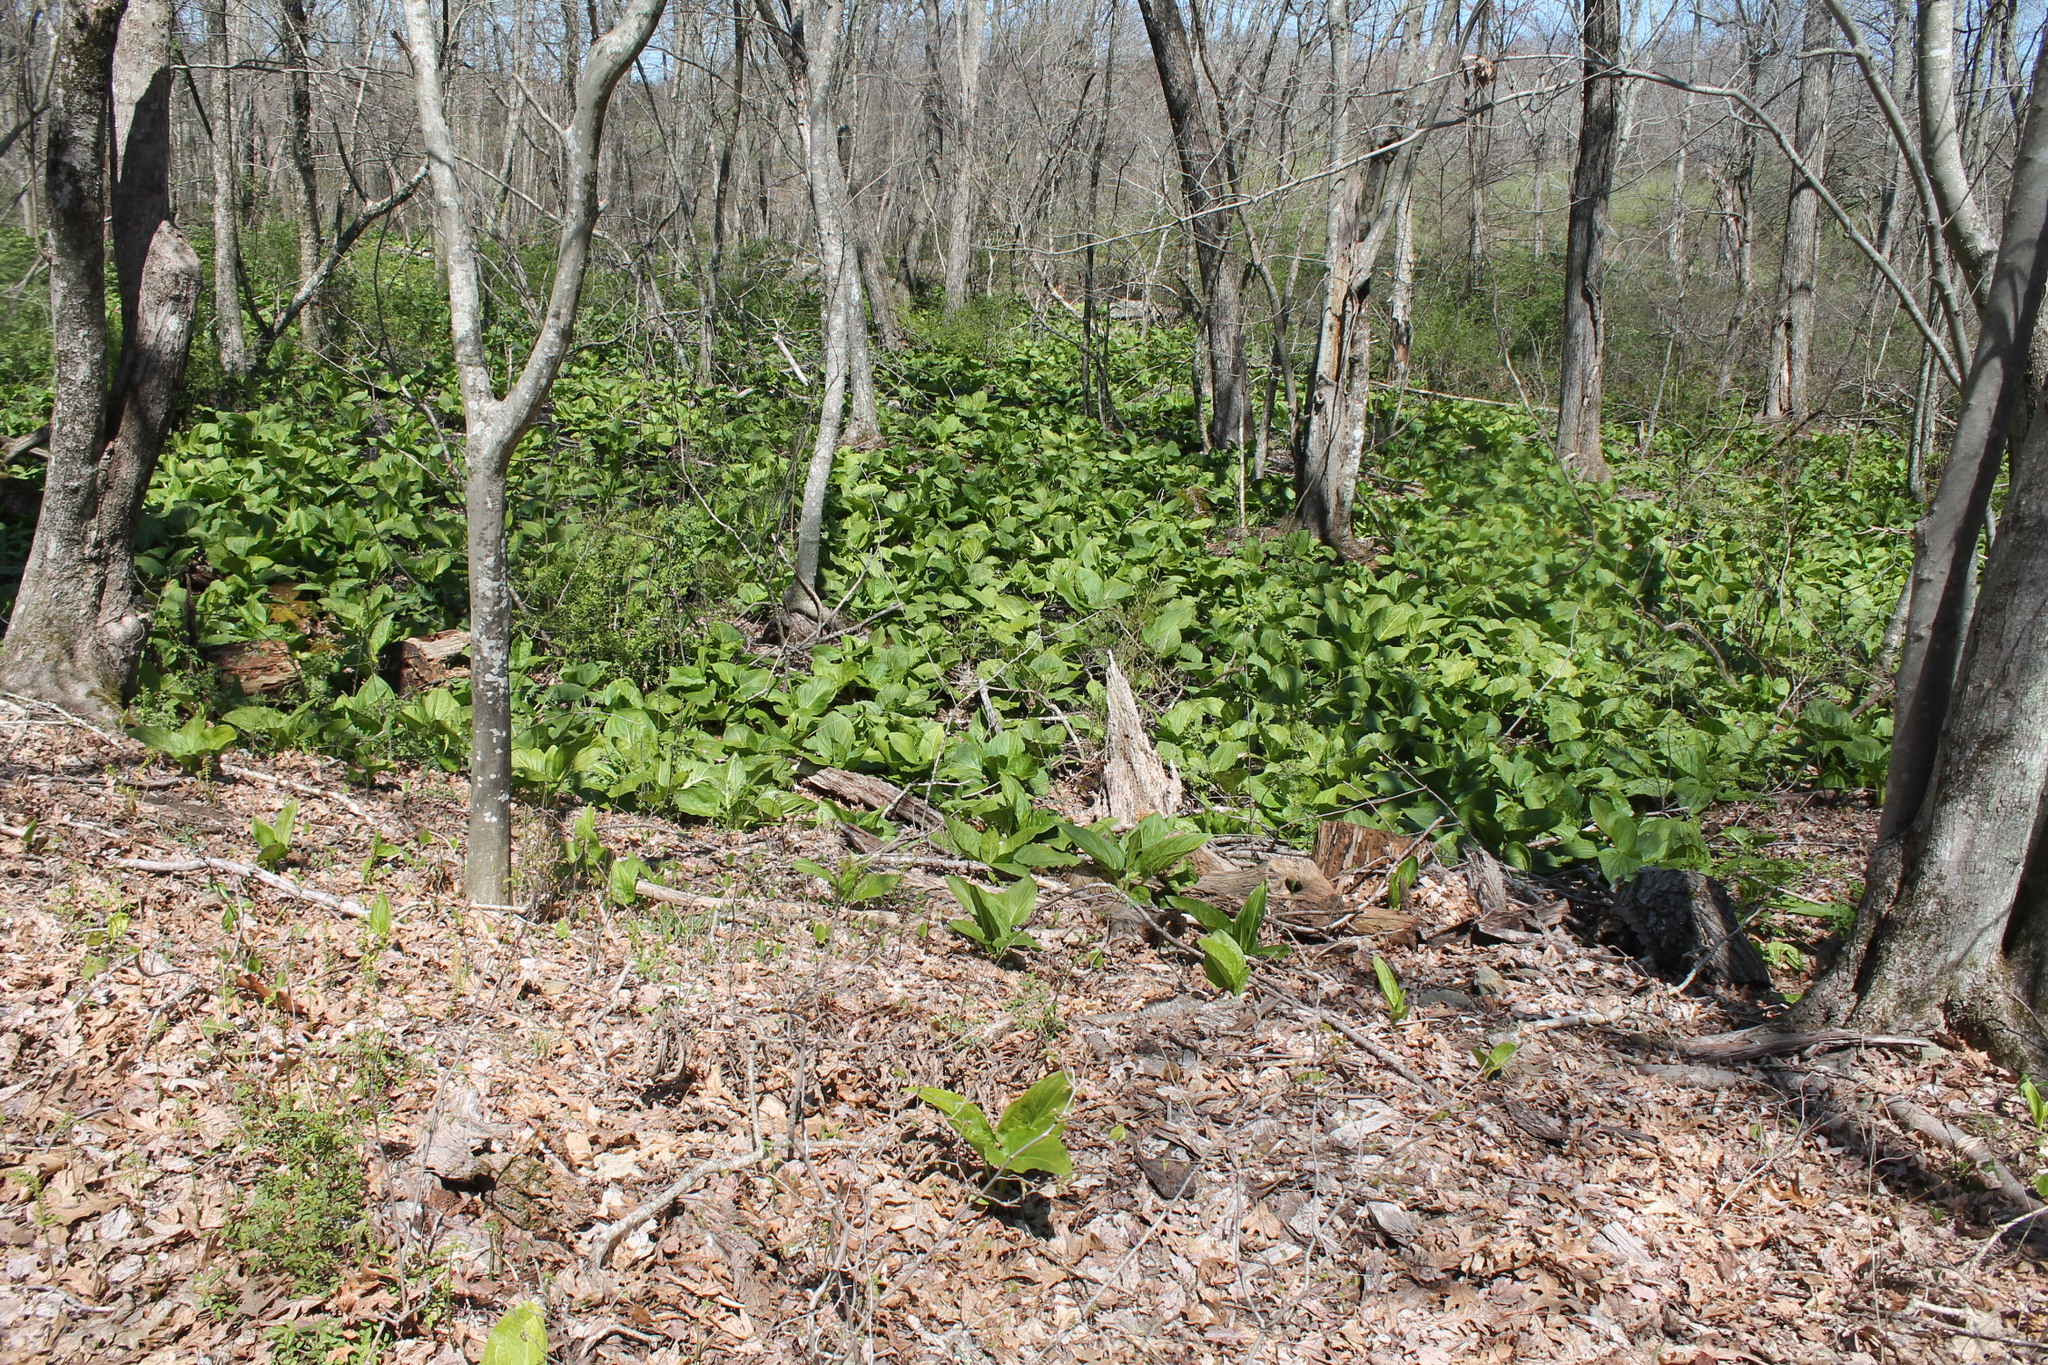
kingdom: Plantae
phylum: Tracheophyta
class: Liliopsida
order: Alismatales
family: Araceae
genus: Symplocarpus
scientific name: Symplocarpus foetidus
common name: Eastern skunk cabbage
